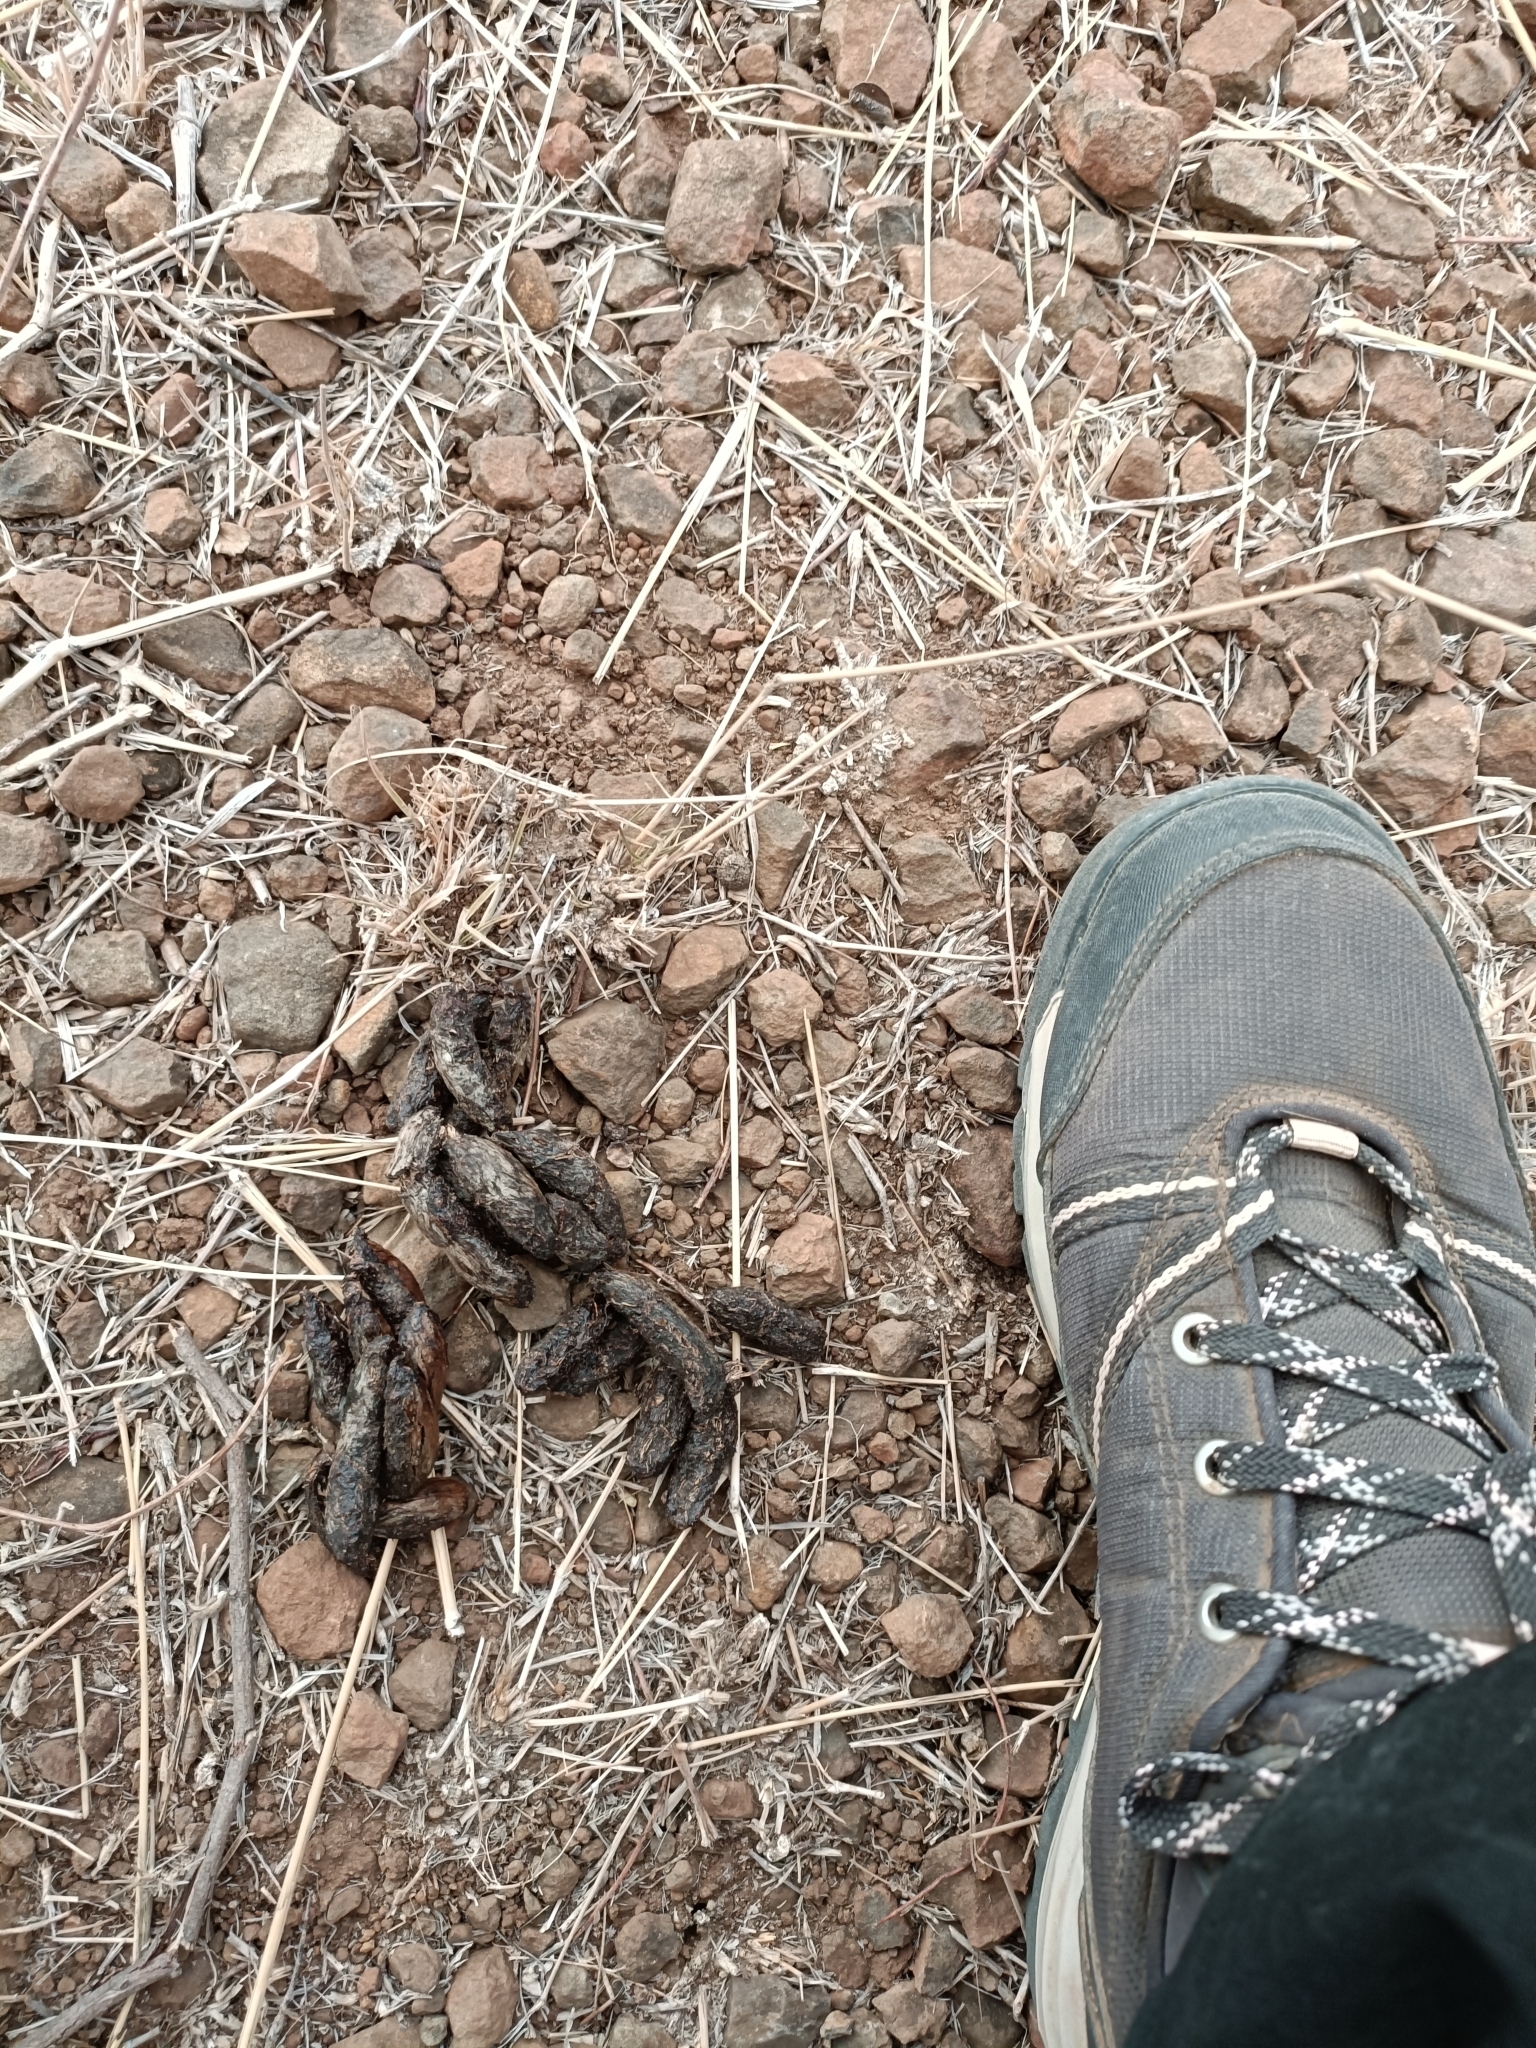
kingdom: Animalia
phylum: Chordata
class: Mammalia
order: Rodentia
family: Hystricidae
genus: Hystrix
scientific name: Hystrix indica
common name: Indian crested porcupine
